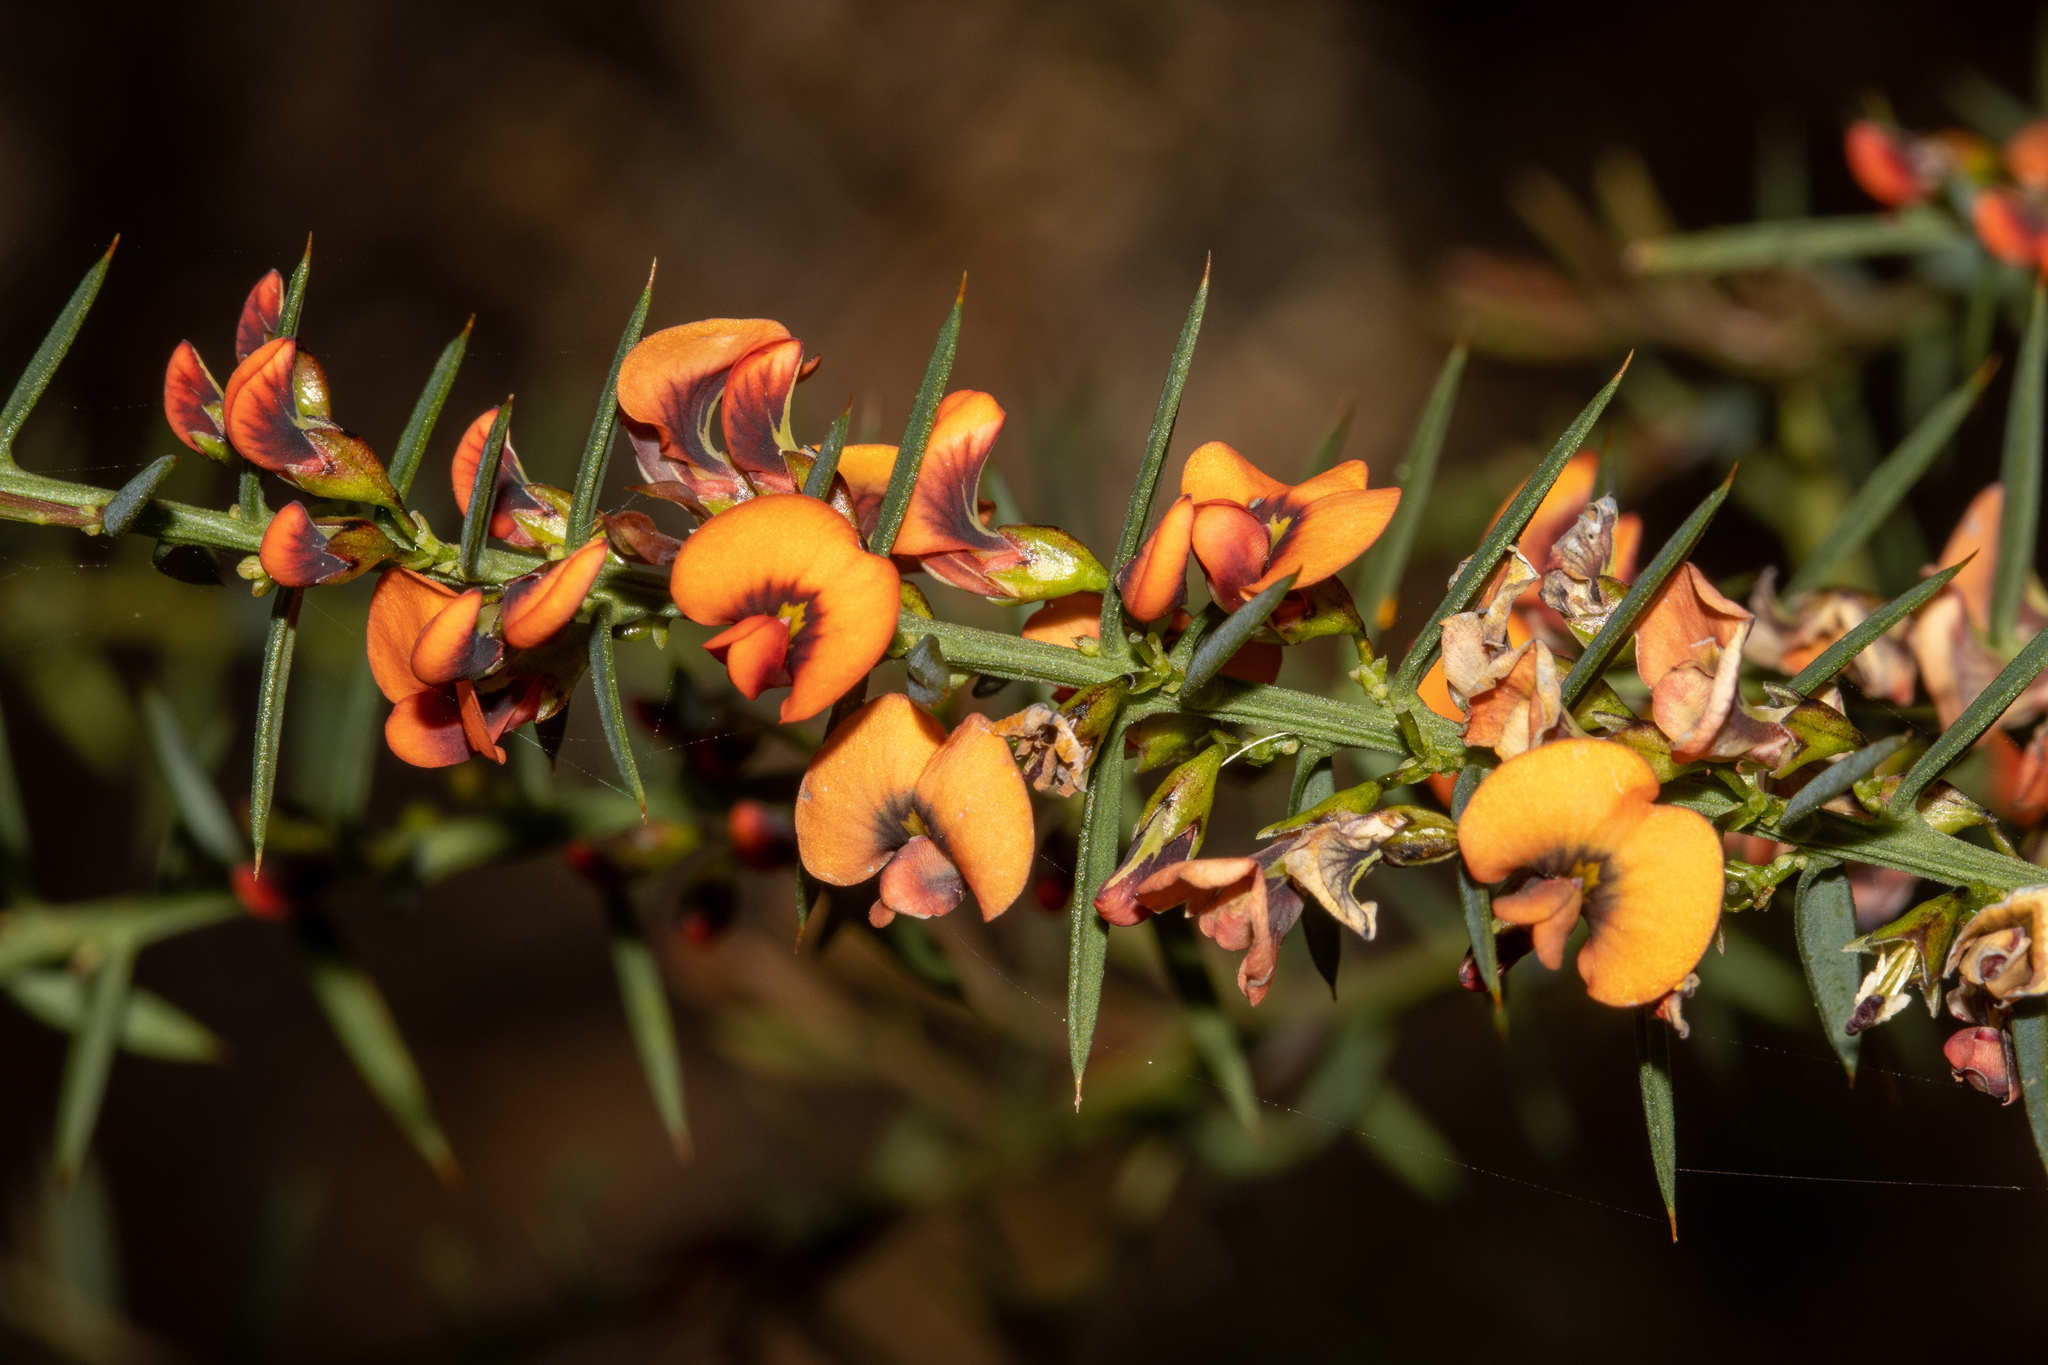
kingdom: Plantae
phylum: Tracheophyta
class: Magnoliopsida
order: Fabales
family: Fabaceae
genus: Daviesia
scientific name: Daviesia ulicifolia
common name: Gorse bitter-pea
